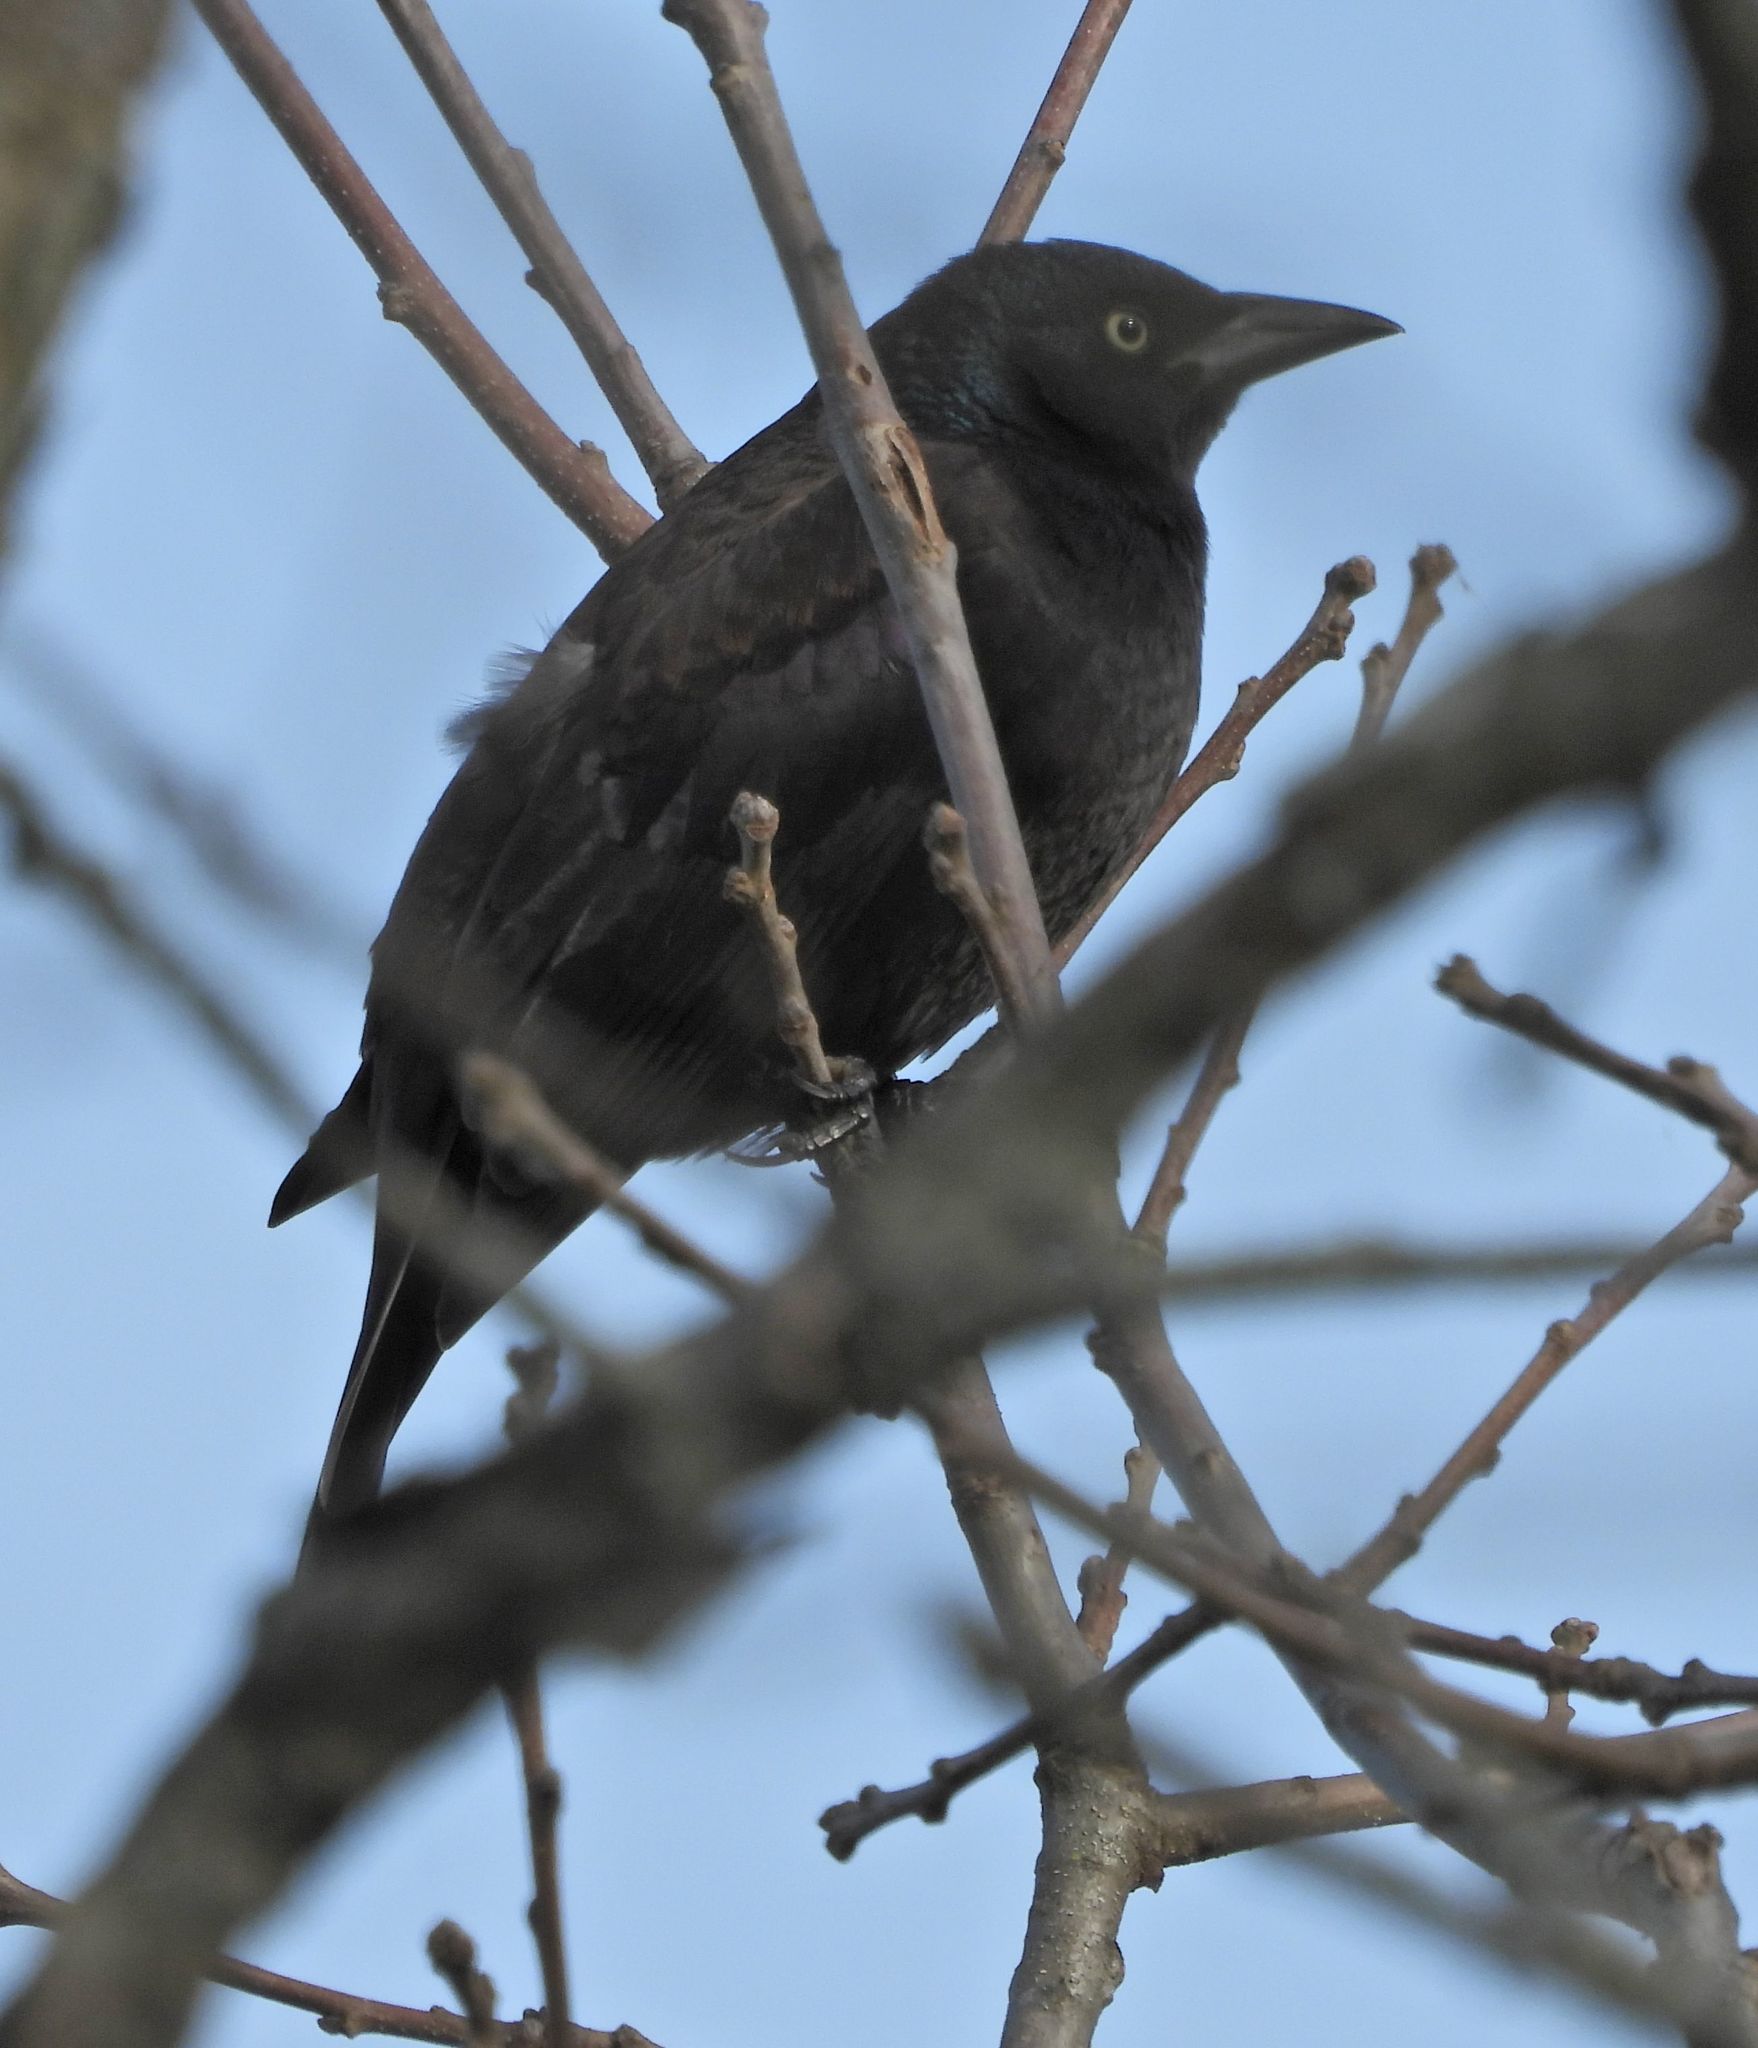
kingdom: Animalia
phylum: Chordata
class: Aves
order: Passeriformes
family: Icteridae
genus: Quiscalus
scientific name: Quiscalus quiscula
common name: Common grackle
